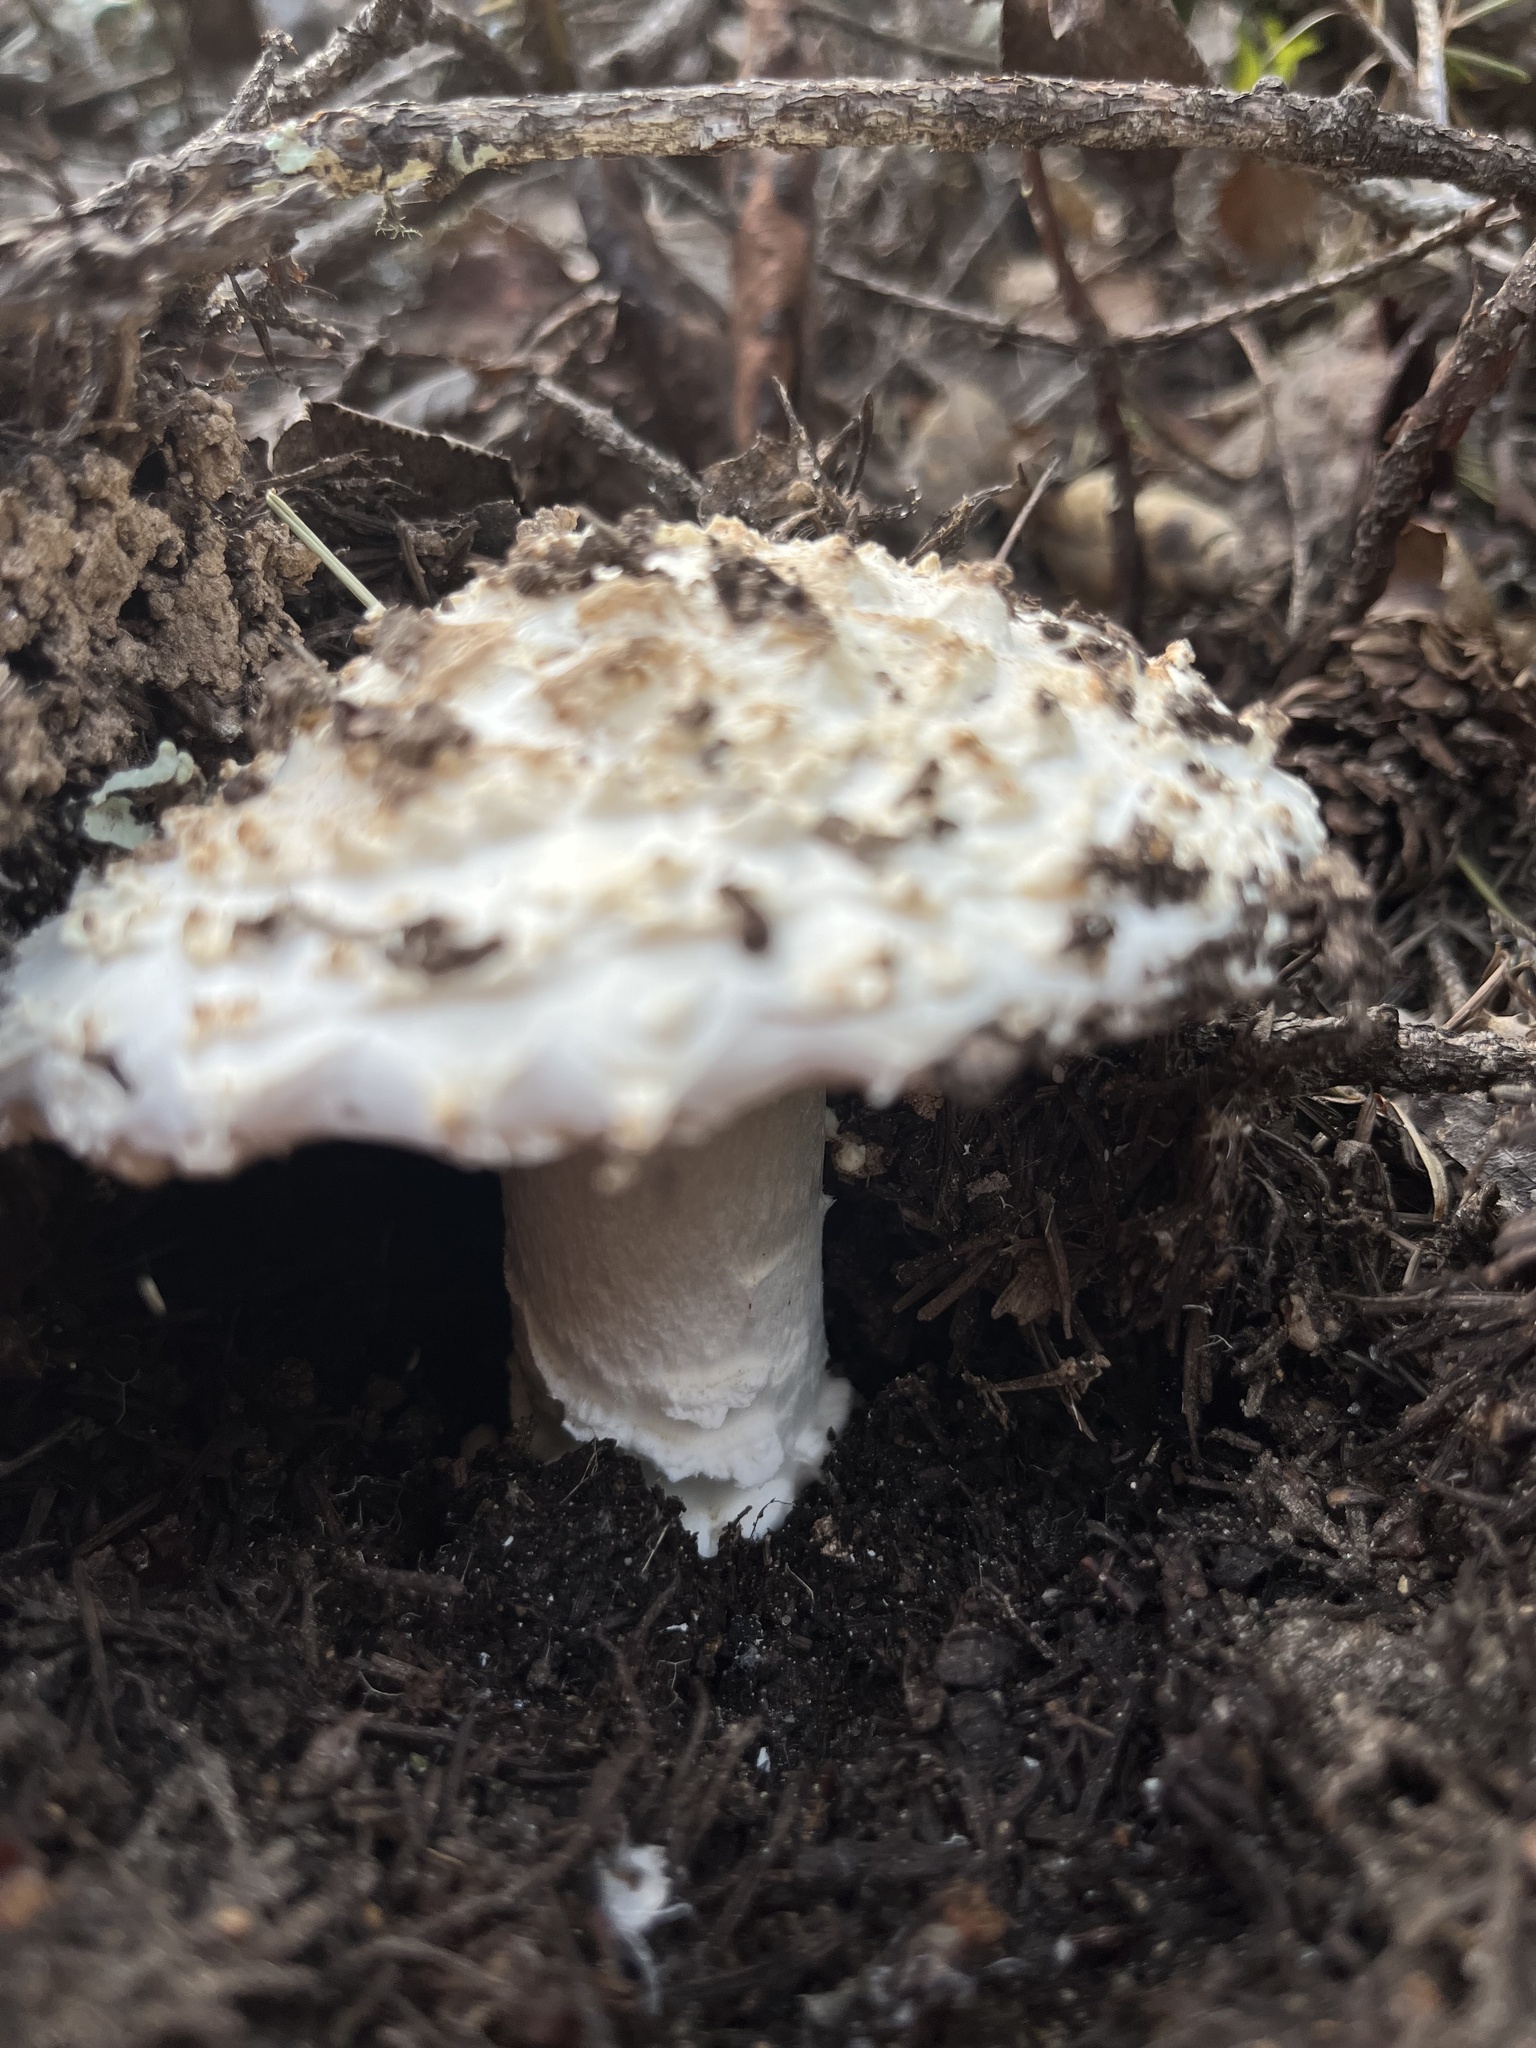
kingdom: Fungi
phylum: Basidiomycota
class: Agaricomycetes
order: Agaricales
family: Amanitaceae
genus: Amanita
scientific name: Amanita magniverrucata
